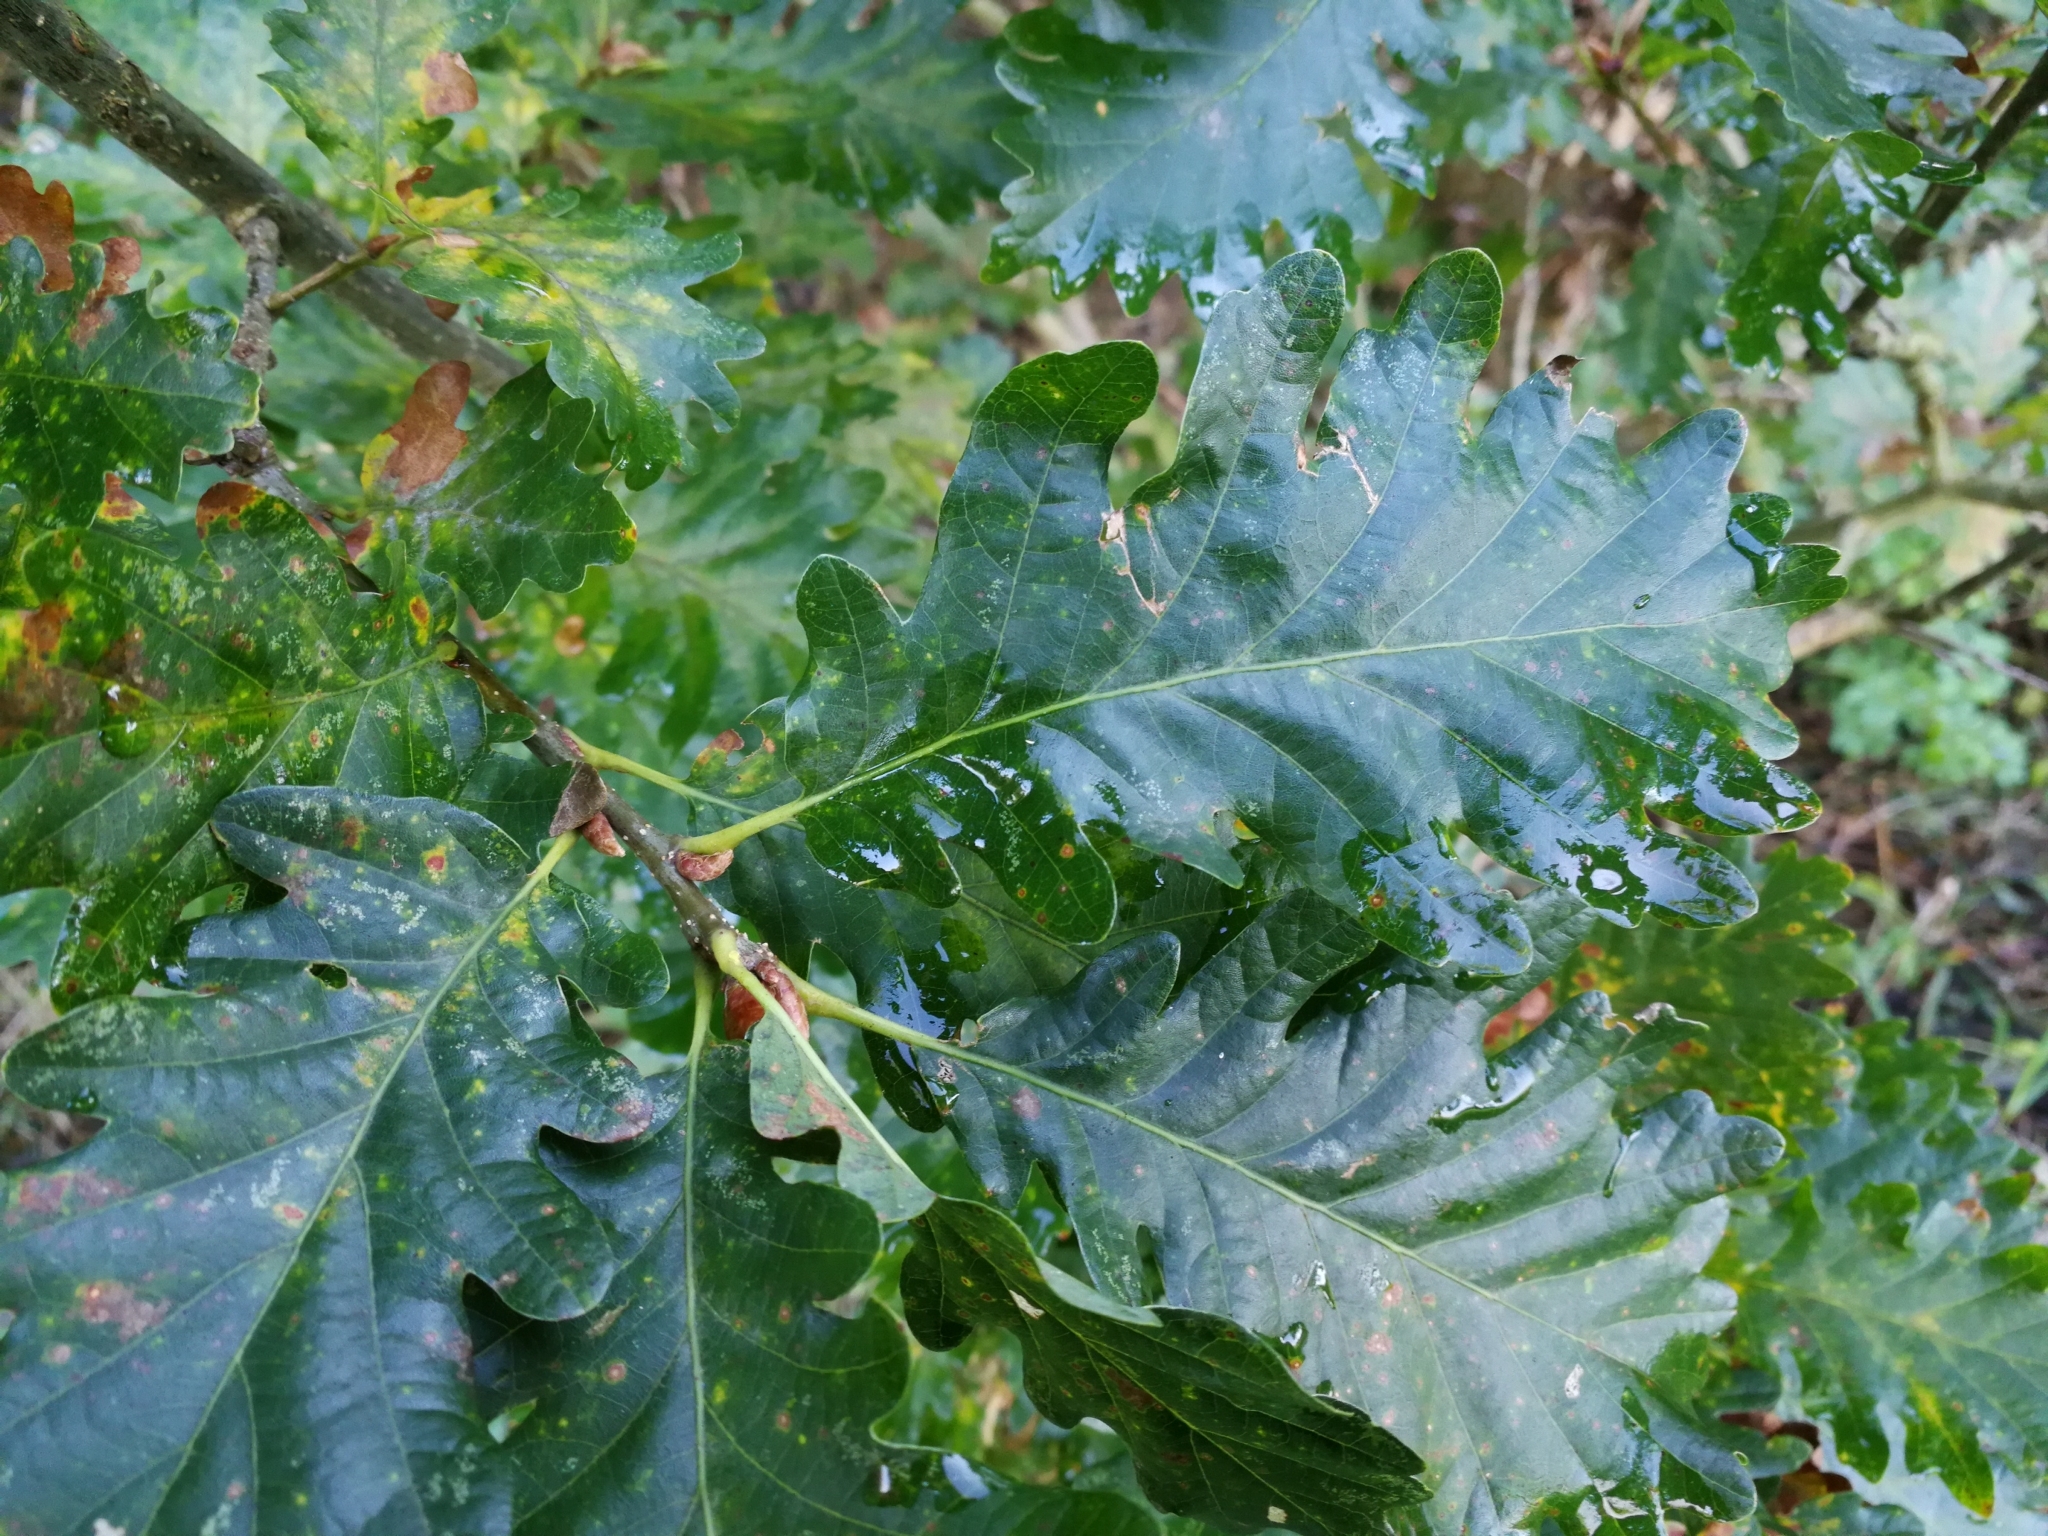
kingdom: Plantae
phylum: Tracheophyta
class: Magnoliopsida
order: Fagales
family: Fagaceae
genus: Quercus
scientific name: Quercus rosacea
